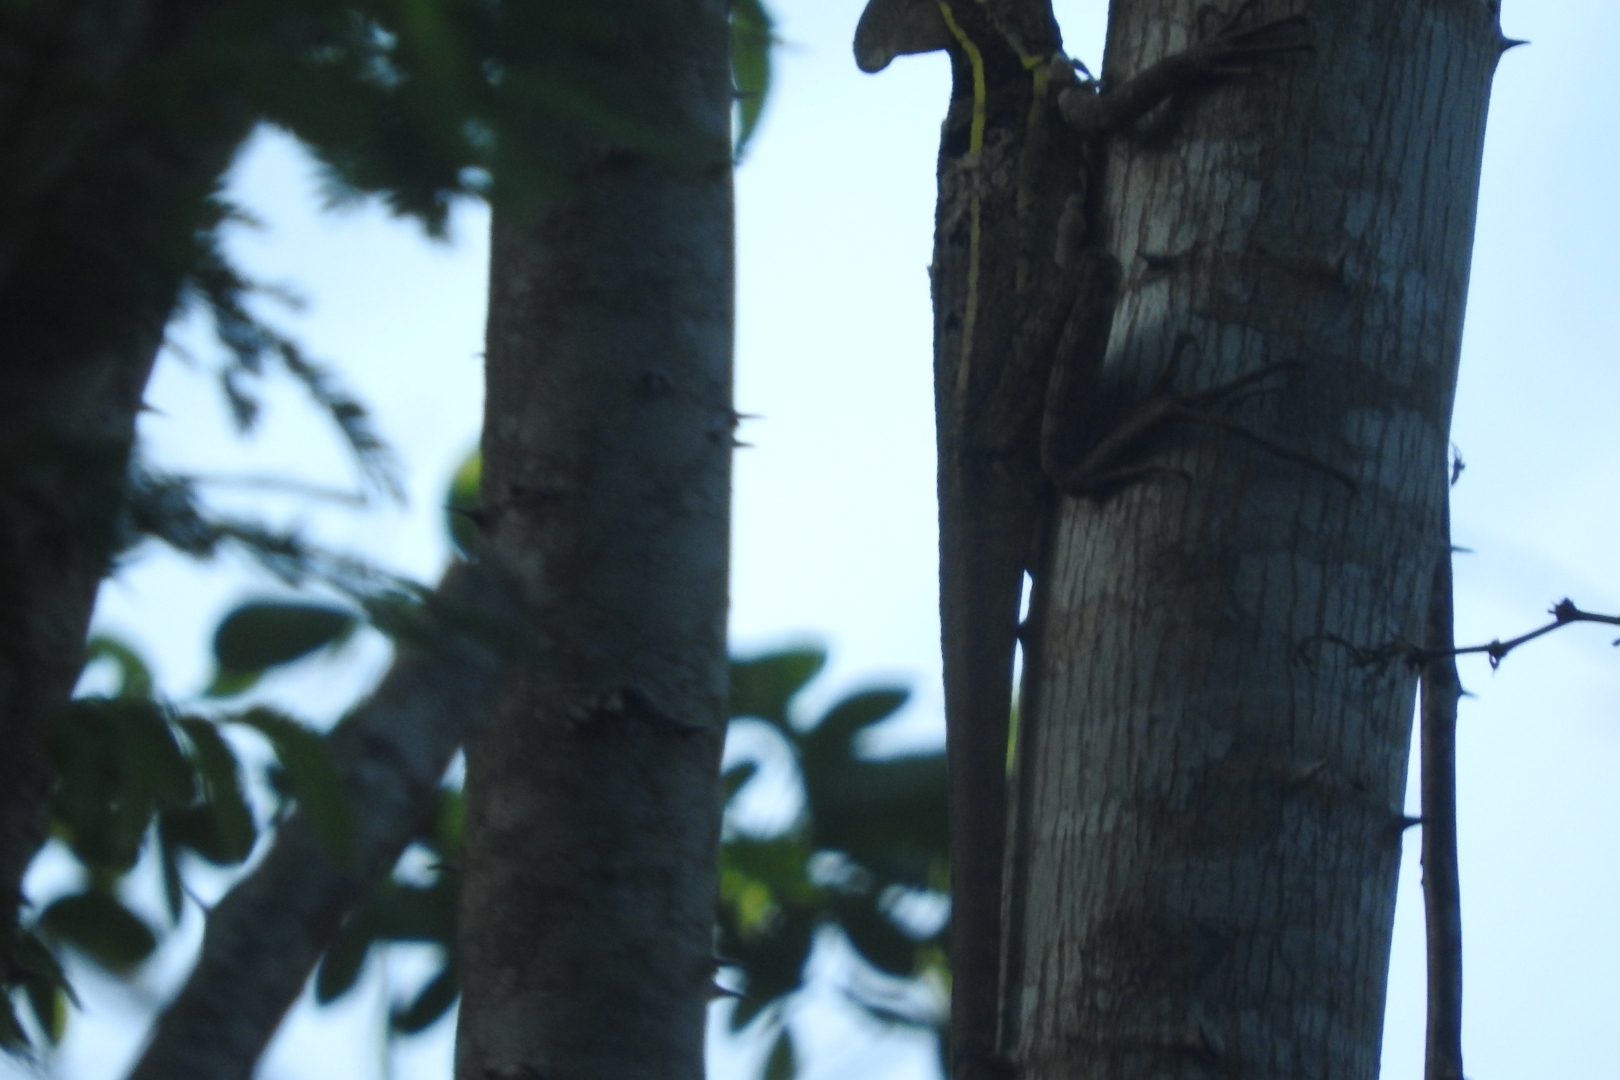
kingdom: Animalia
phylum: Chordata
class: Squamata
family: Corytophanidae
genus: Basiliscus
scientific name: Basiliscus vittatus
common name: Brown basilisk
